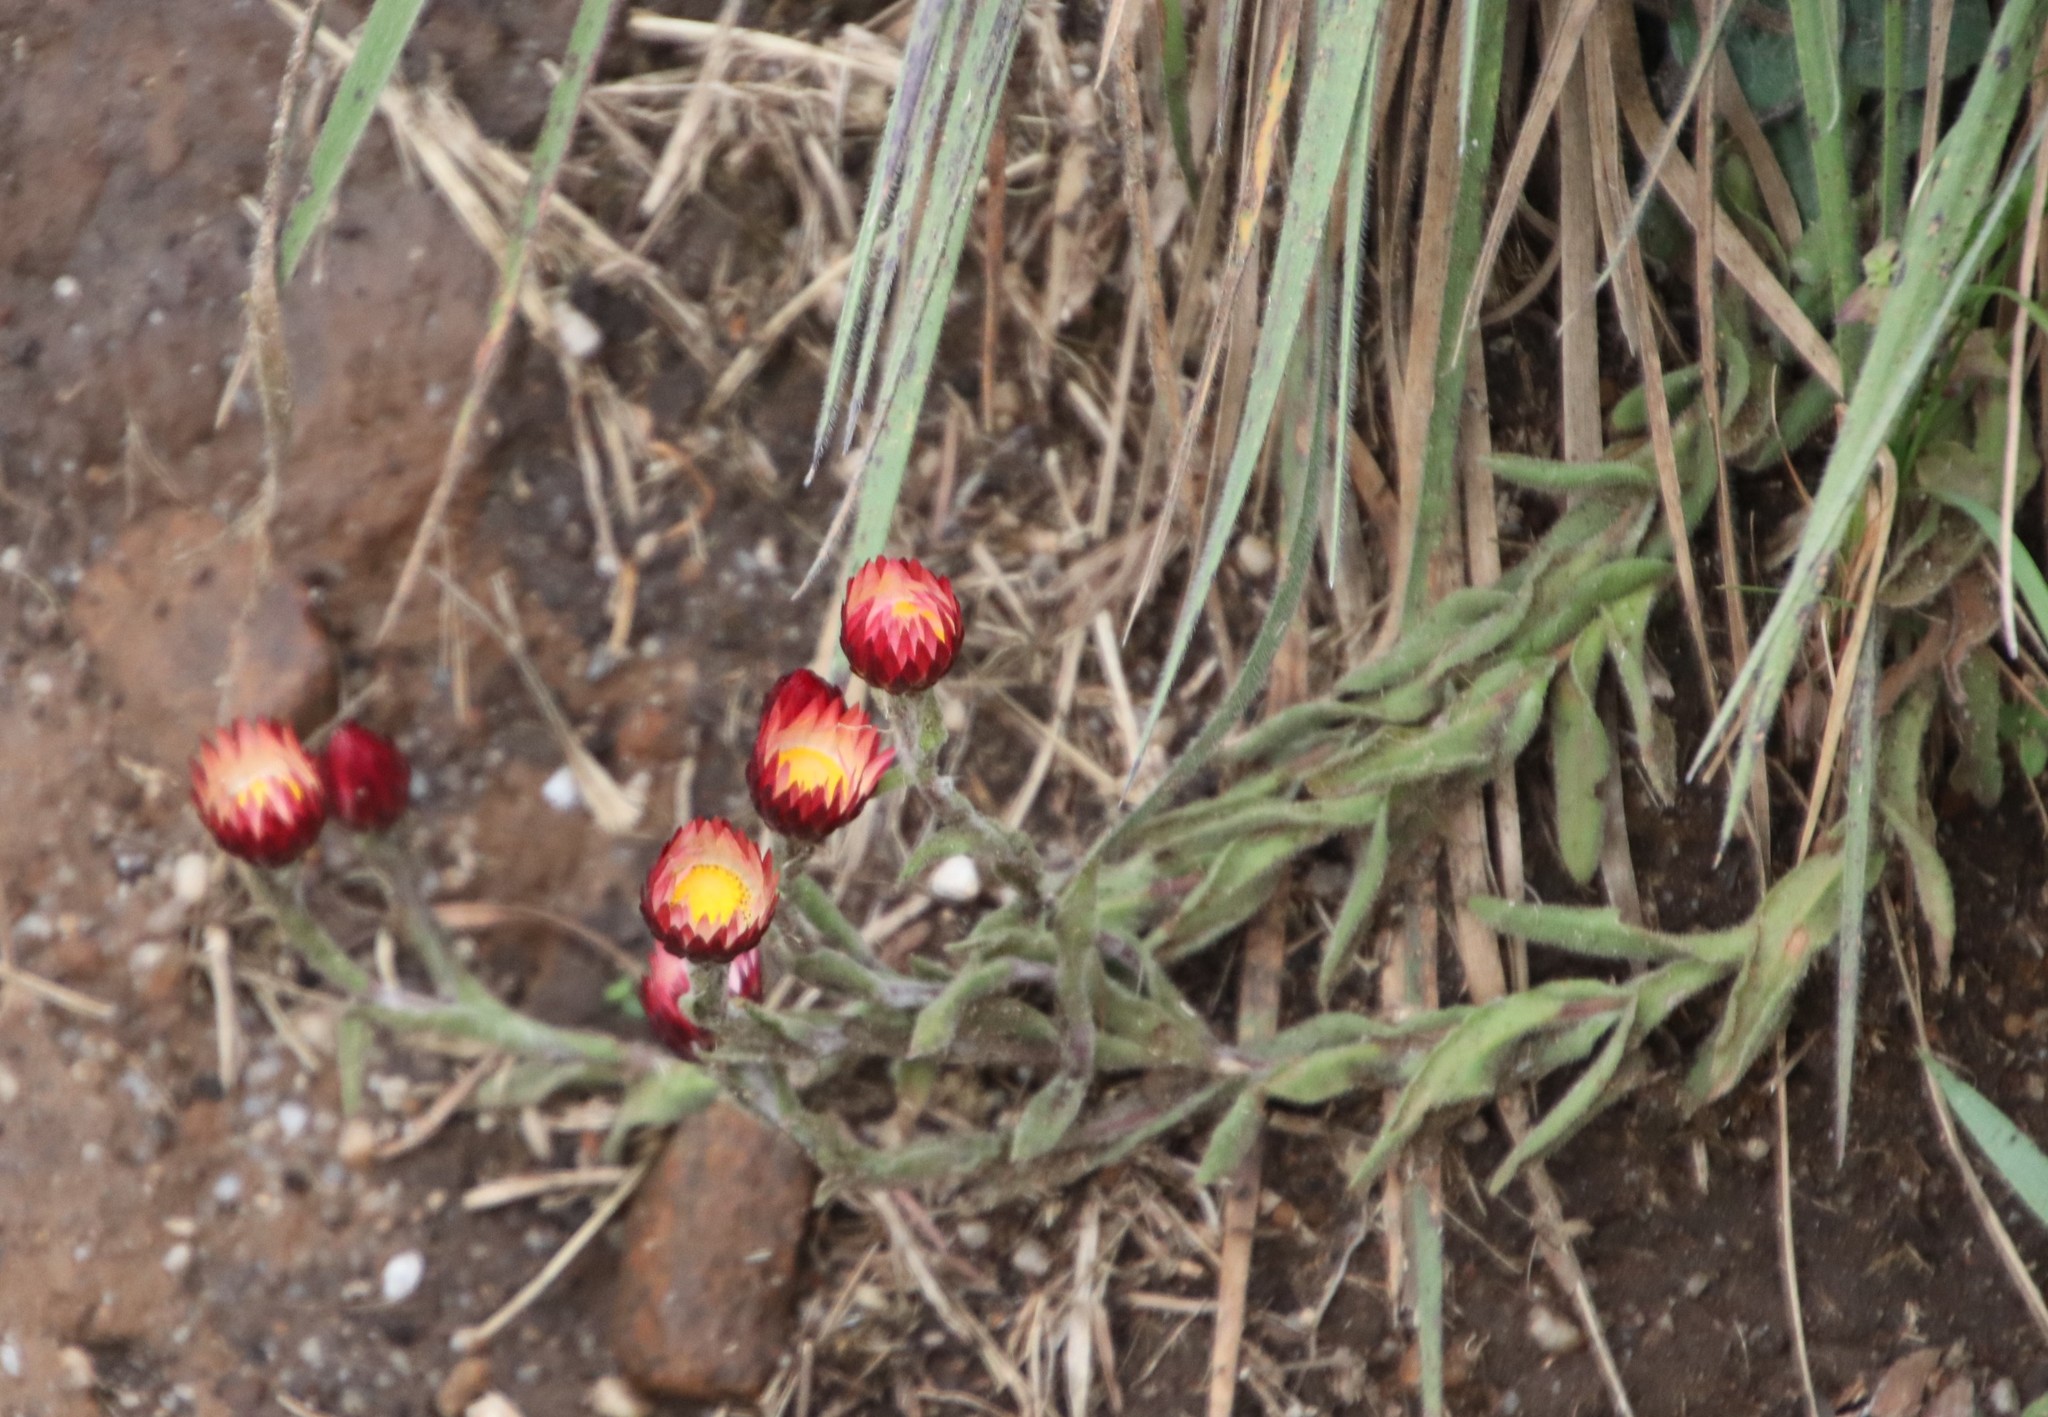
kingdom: Plantae
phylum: Tracheophyta
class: Magnoliopsida
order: Asterales
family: Asteraceae
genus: Helichrysum
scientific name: Helichrysum adenocarpum
